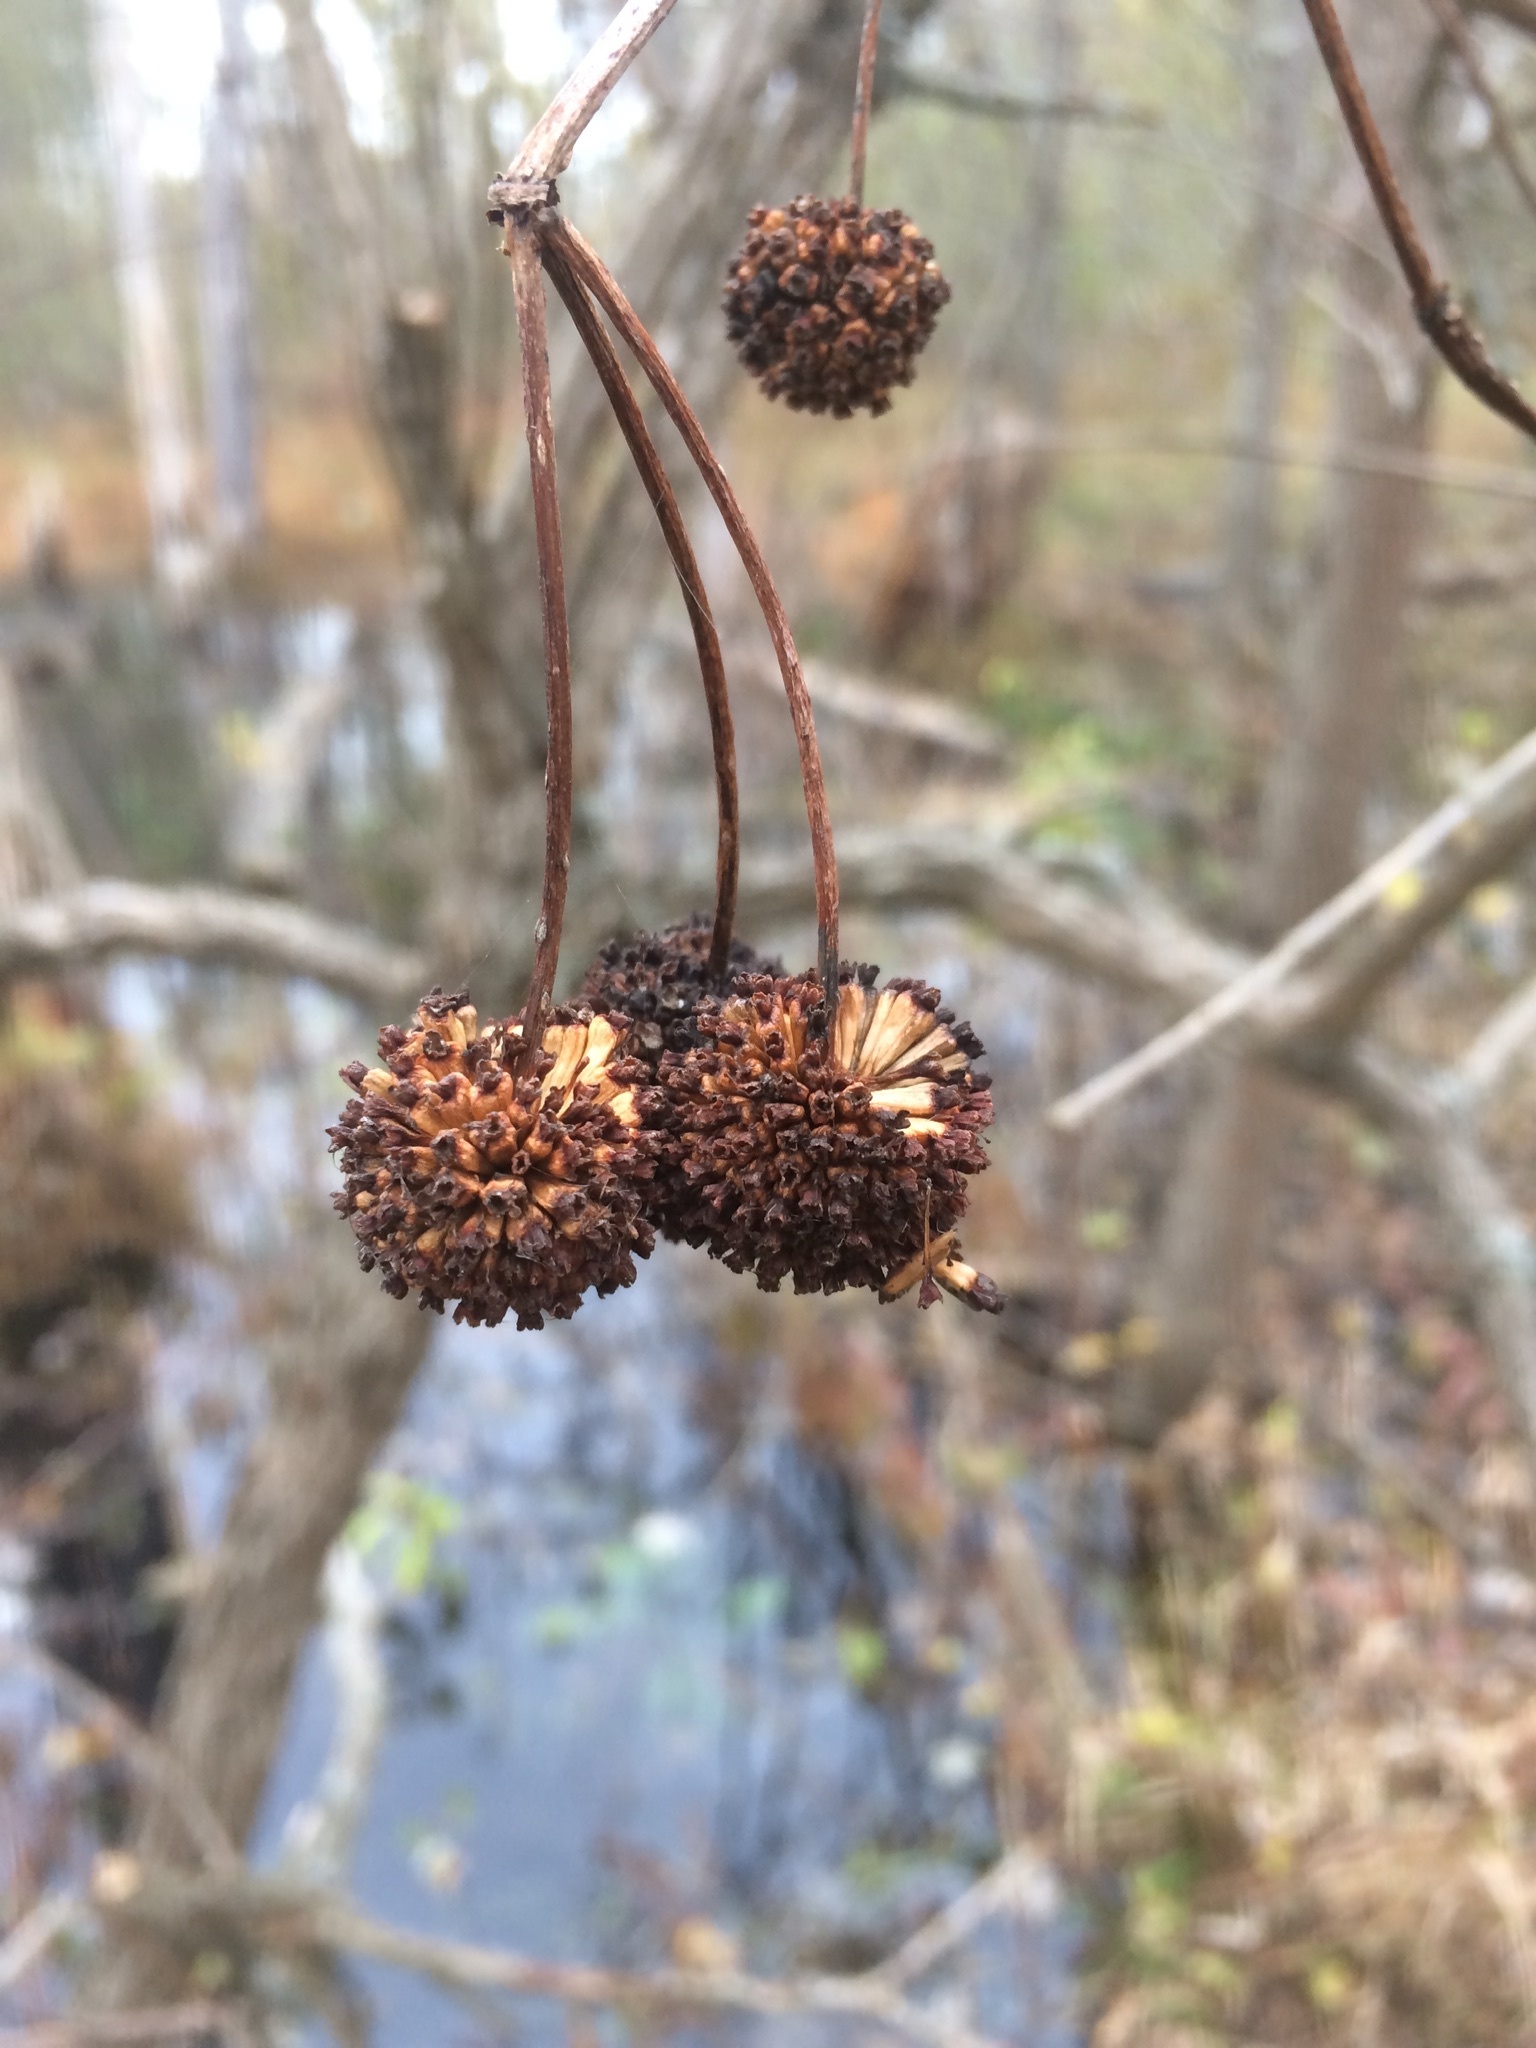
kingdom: Plantae
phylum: Tracheophyta
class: Magnoliopsida
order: Gentianales
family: Rubiaceae
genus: Cephalanthus
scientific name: Cephalanthus occidentalis
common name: Button-willow
